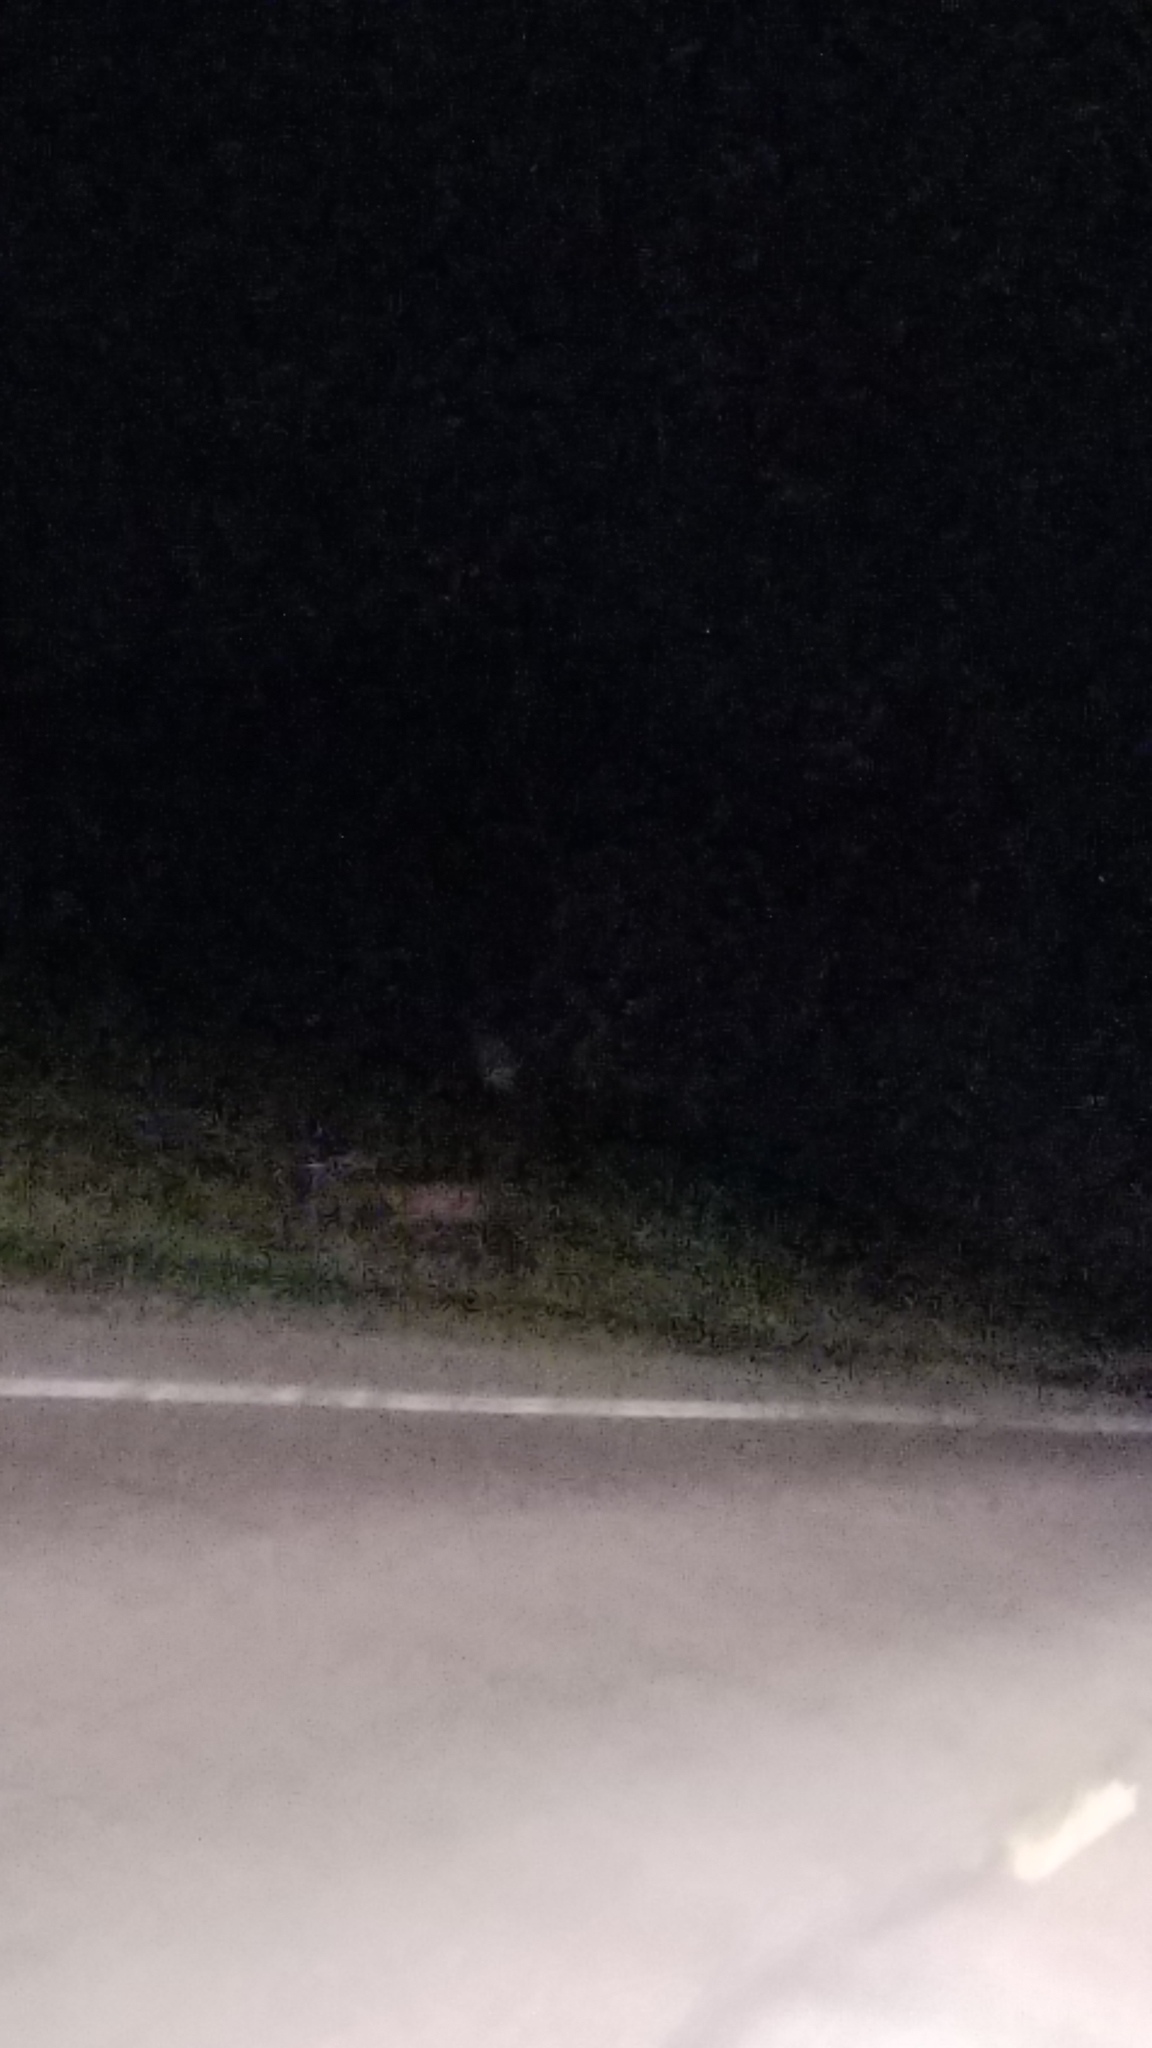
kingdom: Animalia
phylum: Chordata
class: Mammalia
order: Artiodactyla
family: Cervidae
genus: Odocoileus
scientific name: Odocoileus virginianus
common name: White-tailed deer
